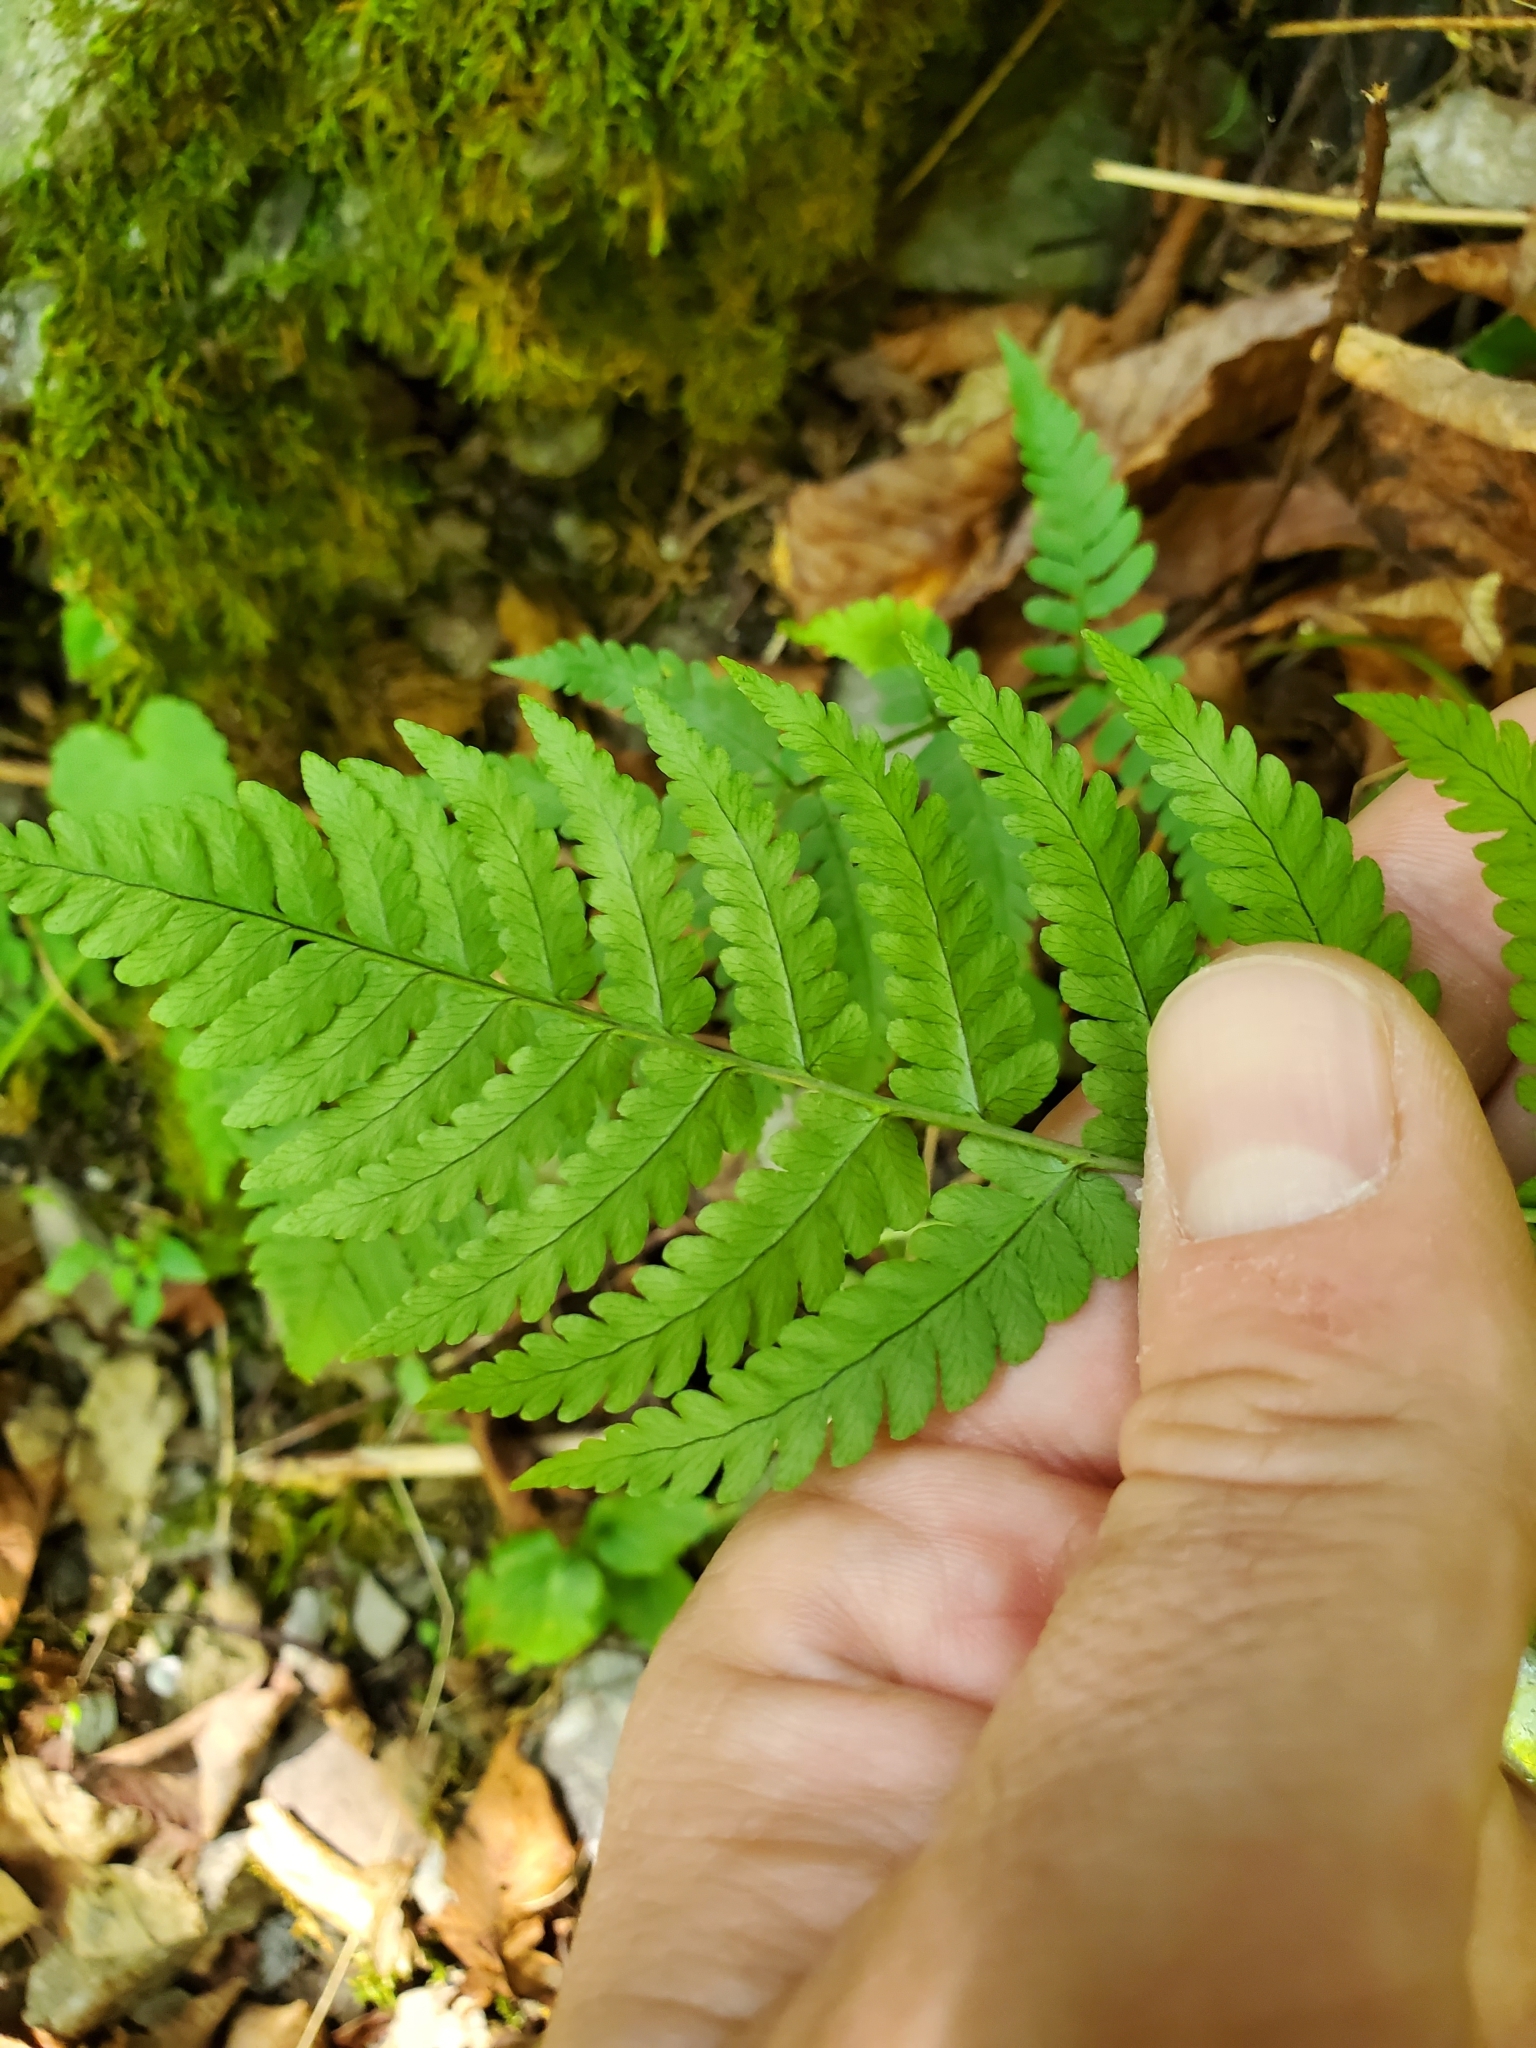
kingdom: Plantae
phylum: Tracheophyta
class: Polypodiopsida
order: Polypodiales
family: Dryopteridaceae
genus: Dryopteris
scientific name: Dryopteris marginalis
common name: Marginal wood fern
